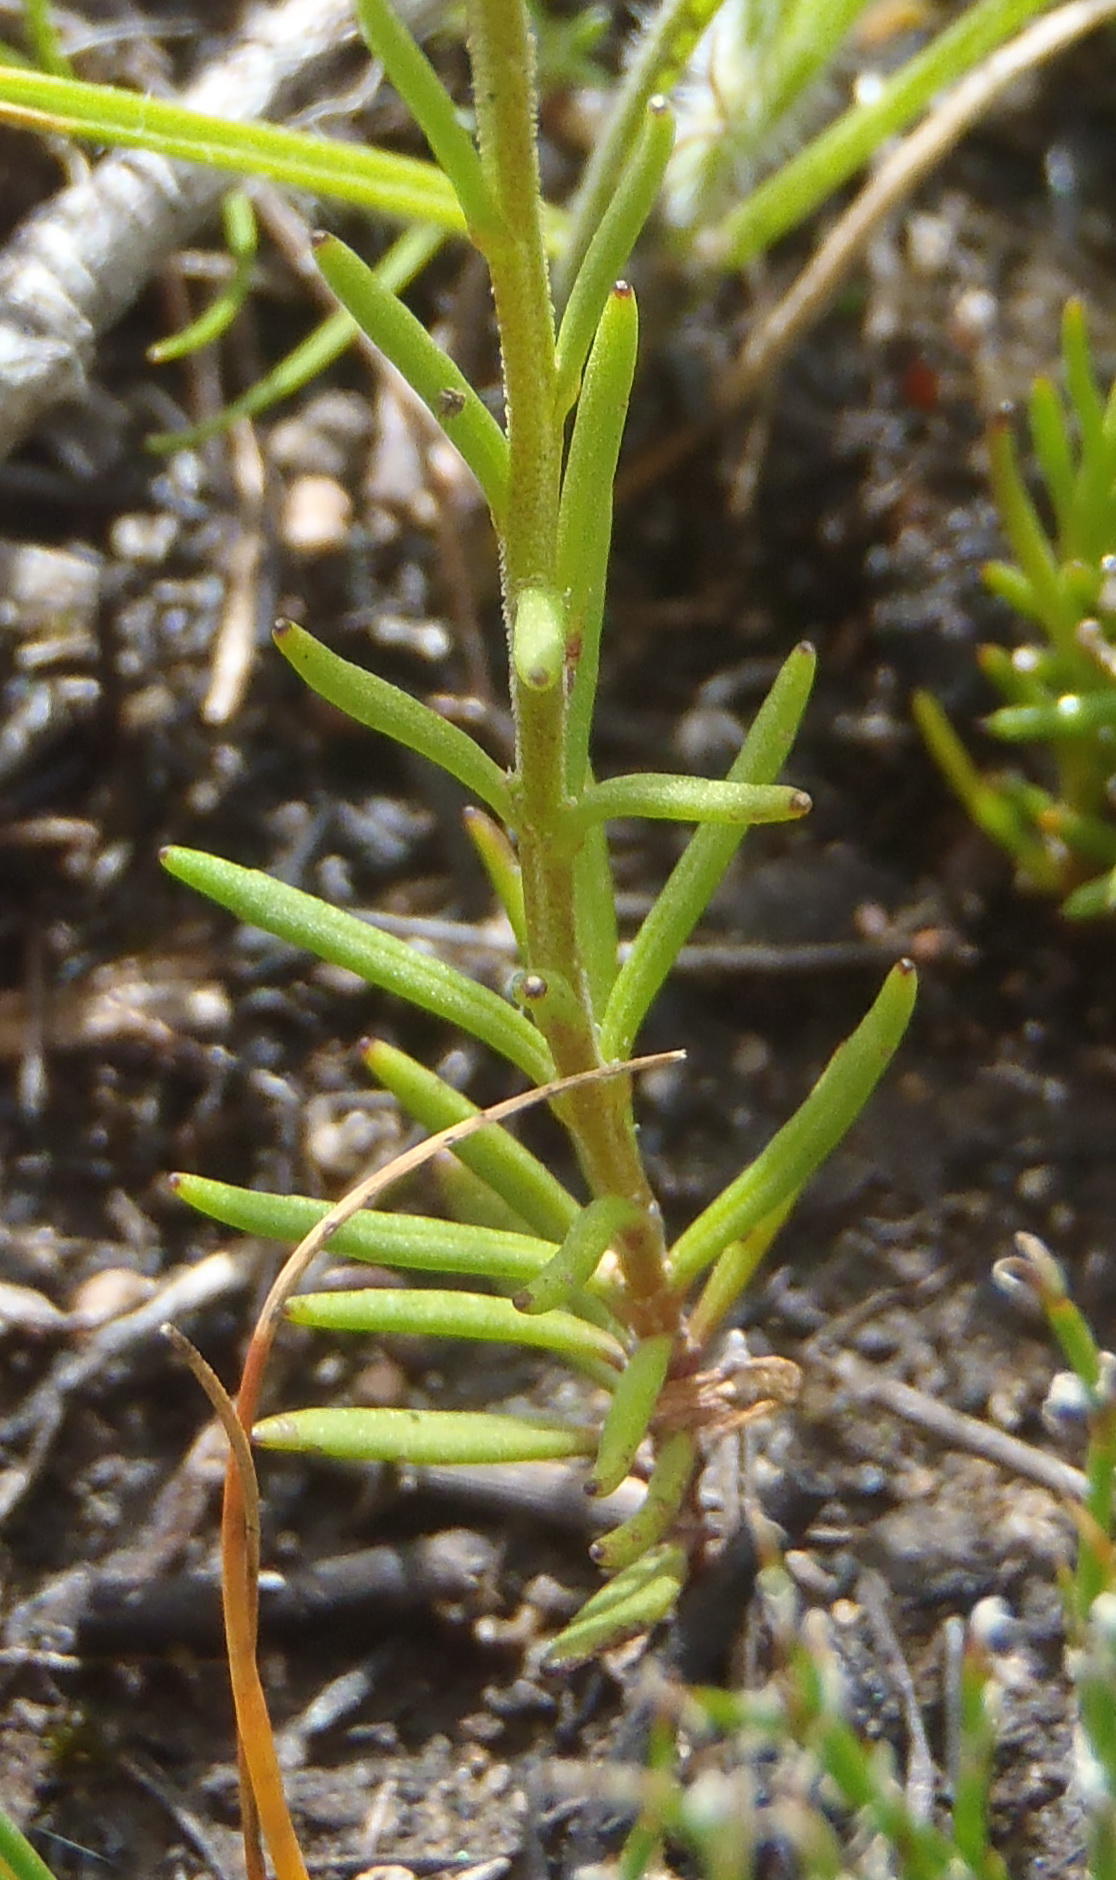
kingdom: Plantae
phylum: Tracheophyta
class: Magnoliopsida
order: Lamiales
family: Scrophulariaceae
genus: Phyllopodium
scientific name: Phyllopodium elegans
